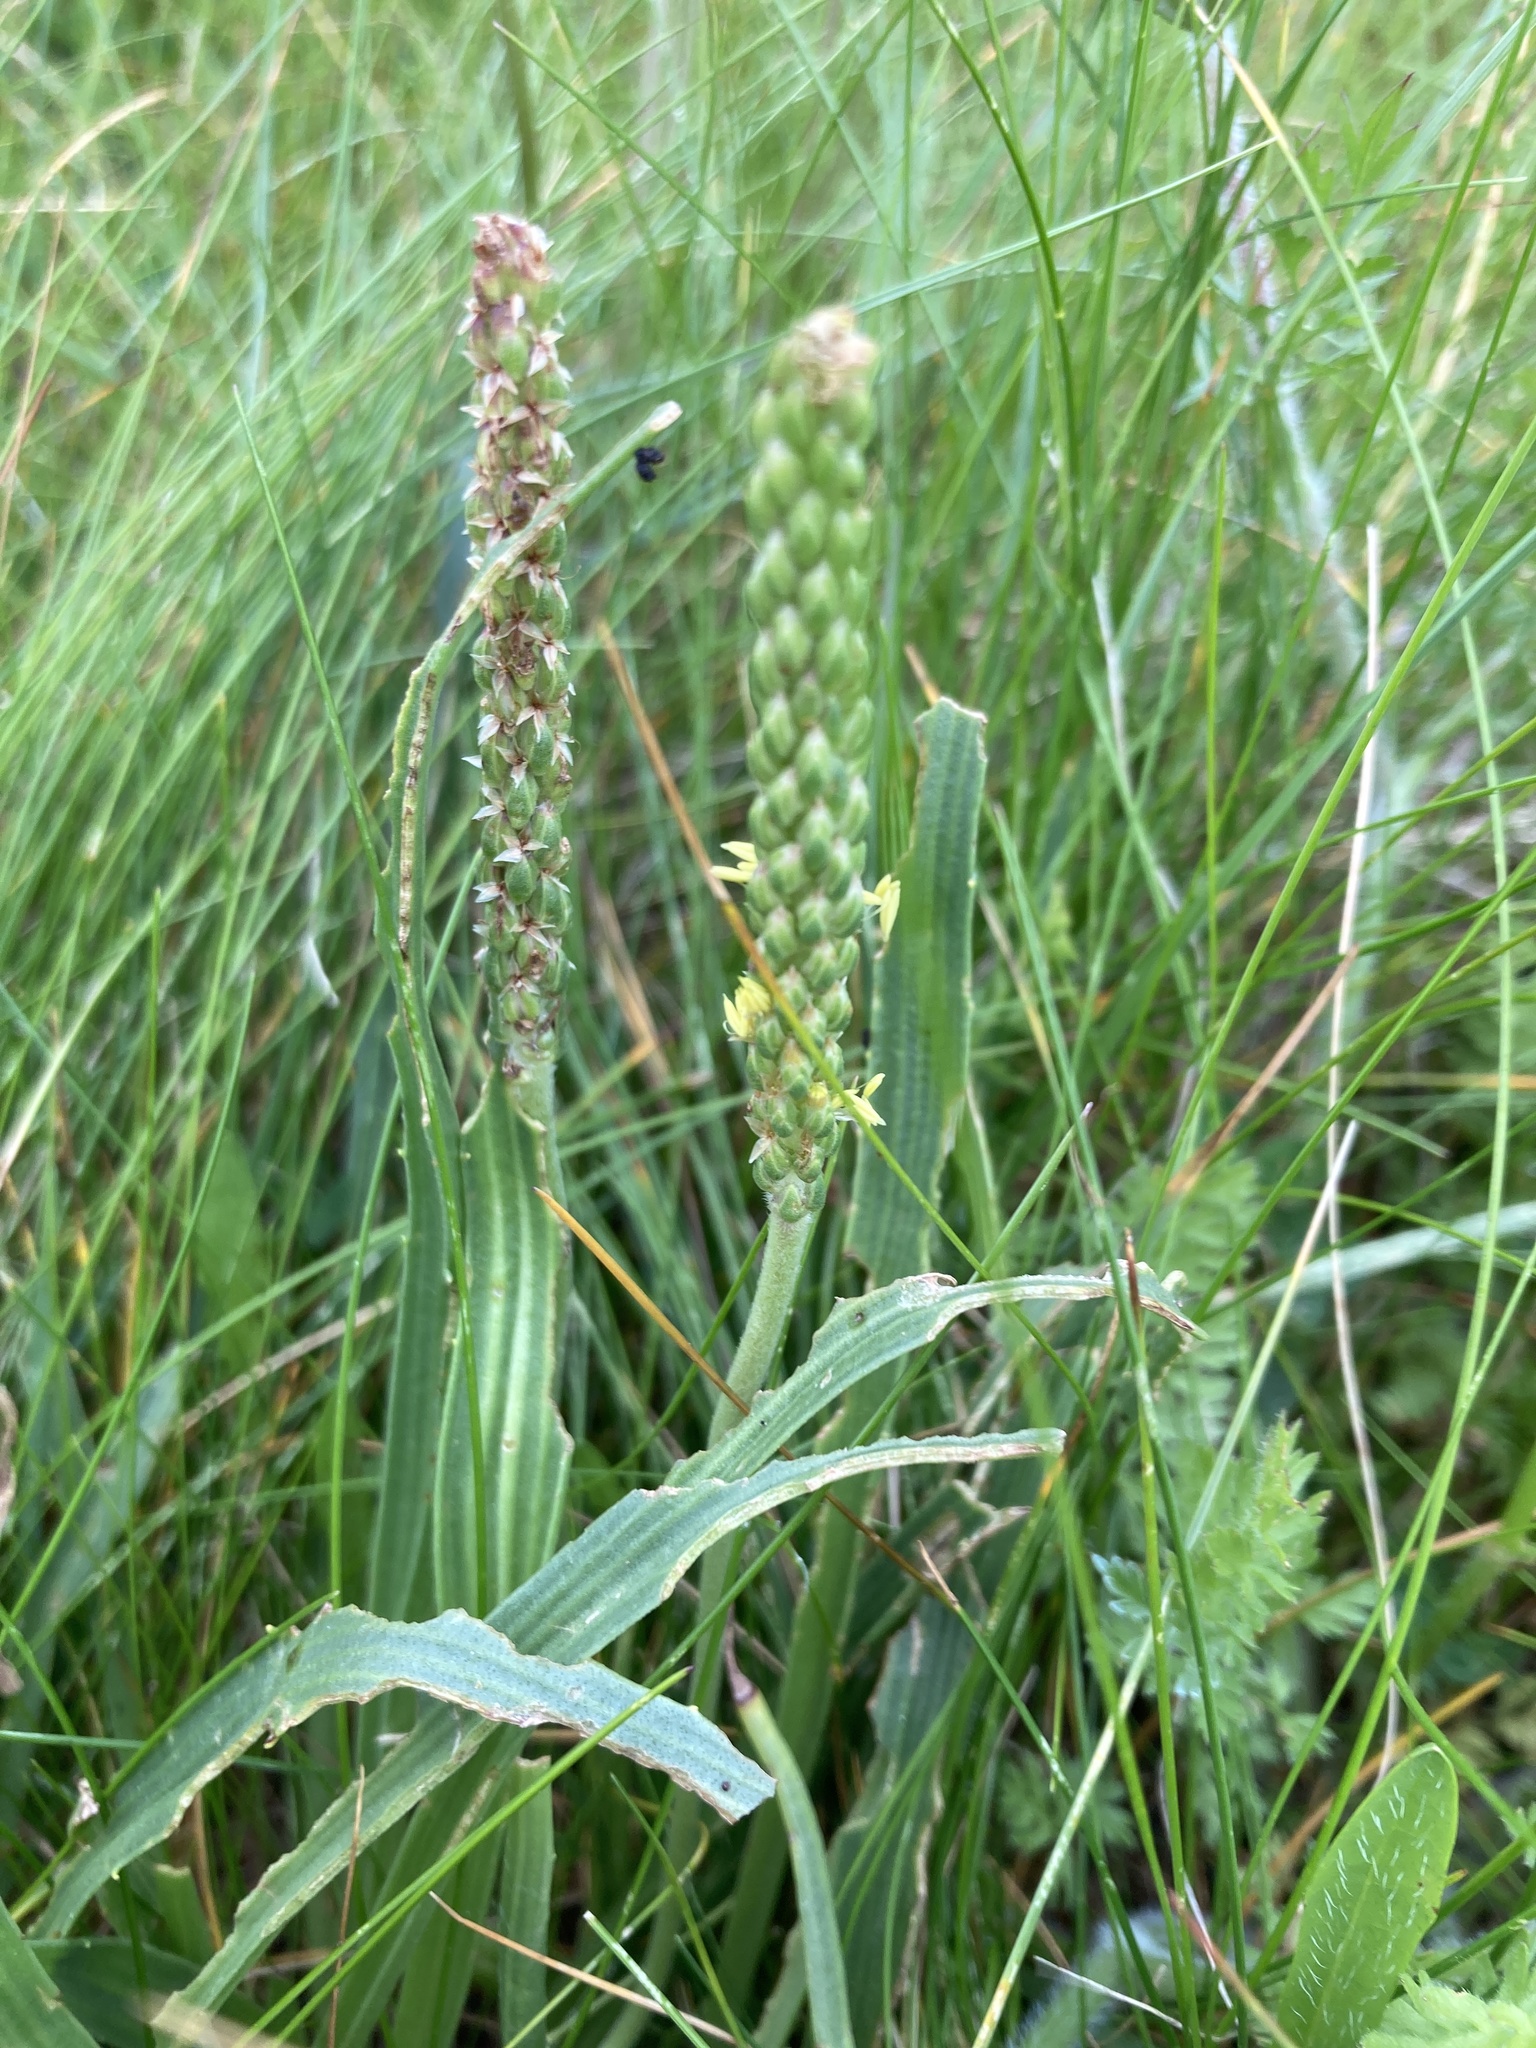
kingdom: Plantae
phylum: Tracheophyta
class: Magnoliopsida
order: Lamiales
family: Plantaginaceae
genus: Plantago
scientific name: Plantago maritima
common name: Sea plantain
